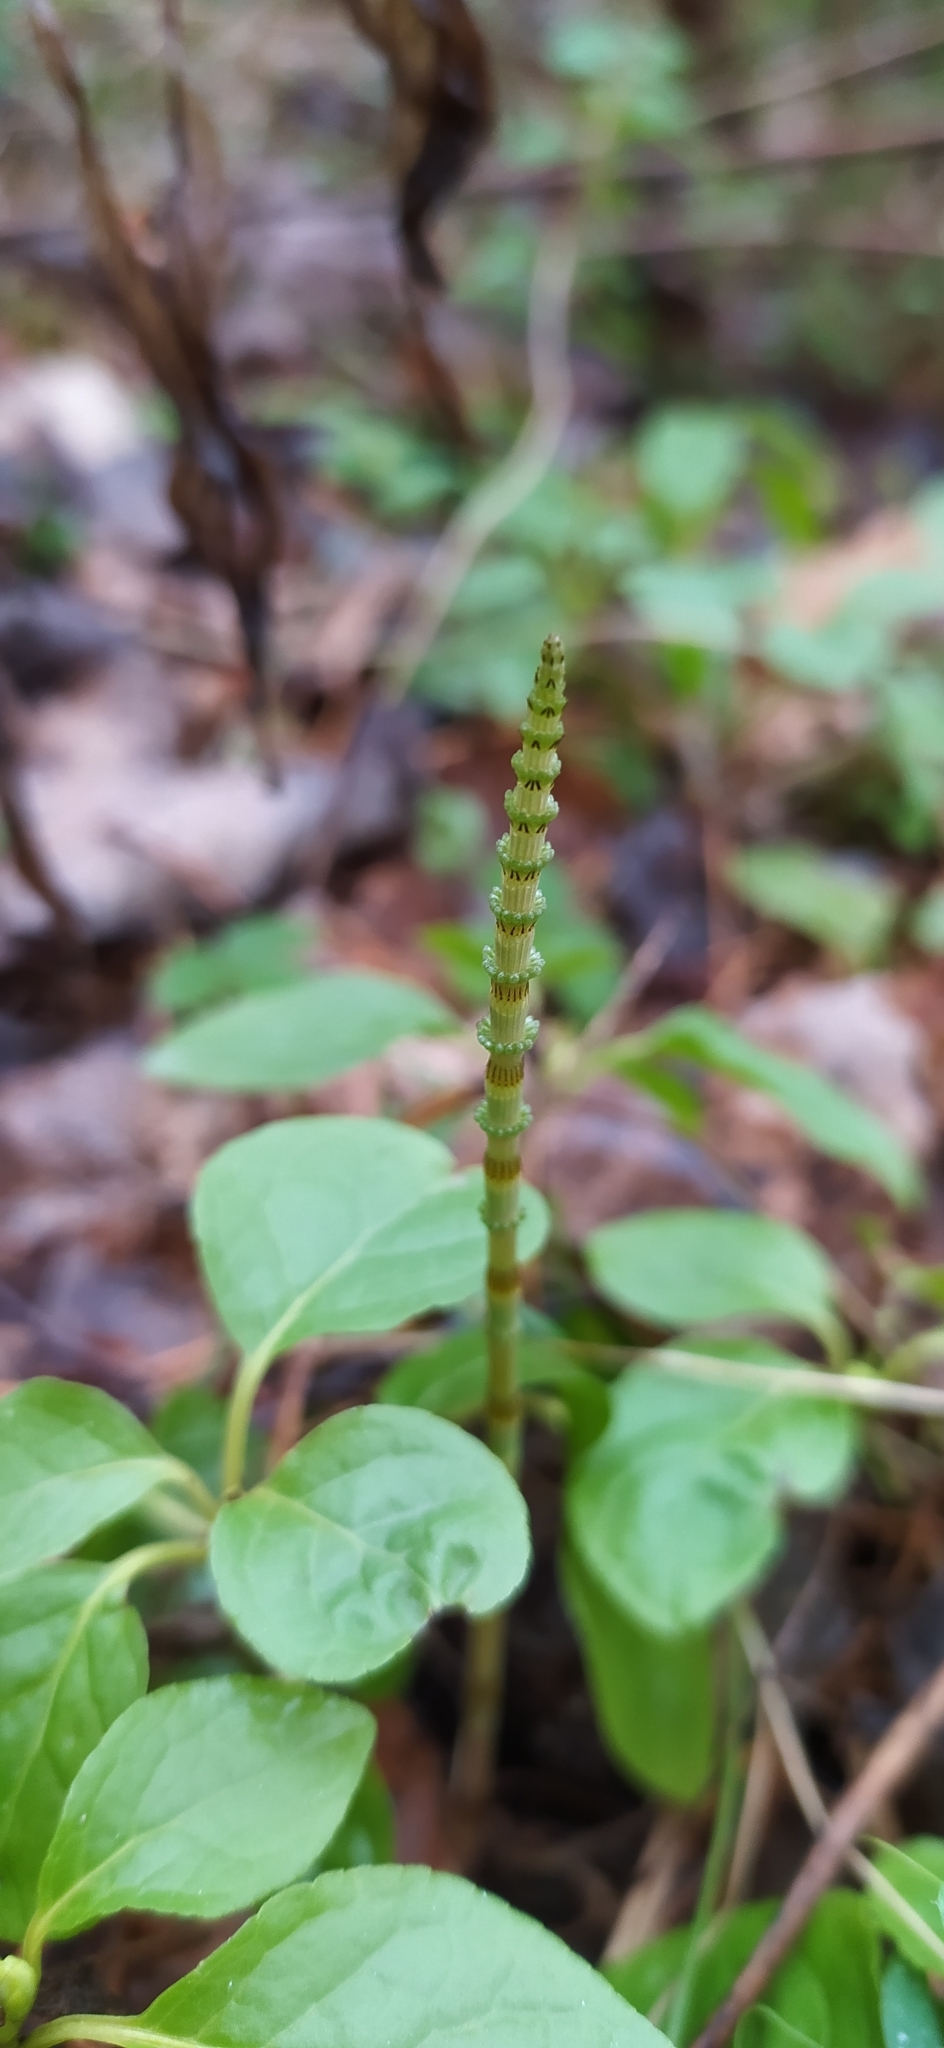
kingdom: Plantae
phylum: Tracheophyta
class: Polypodiopsida
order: Equisetales
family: Equisetaceae
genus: Equisetum
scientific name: Equisetum pratense
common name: Meadow horsetail
